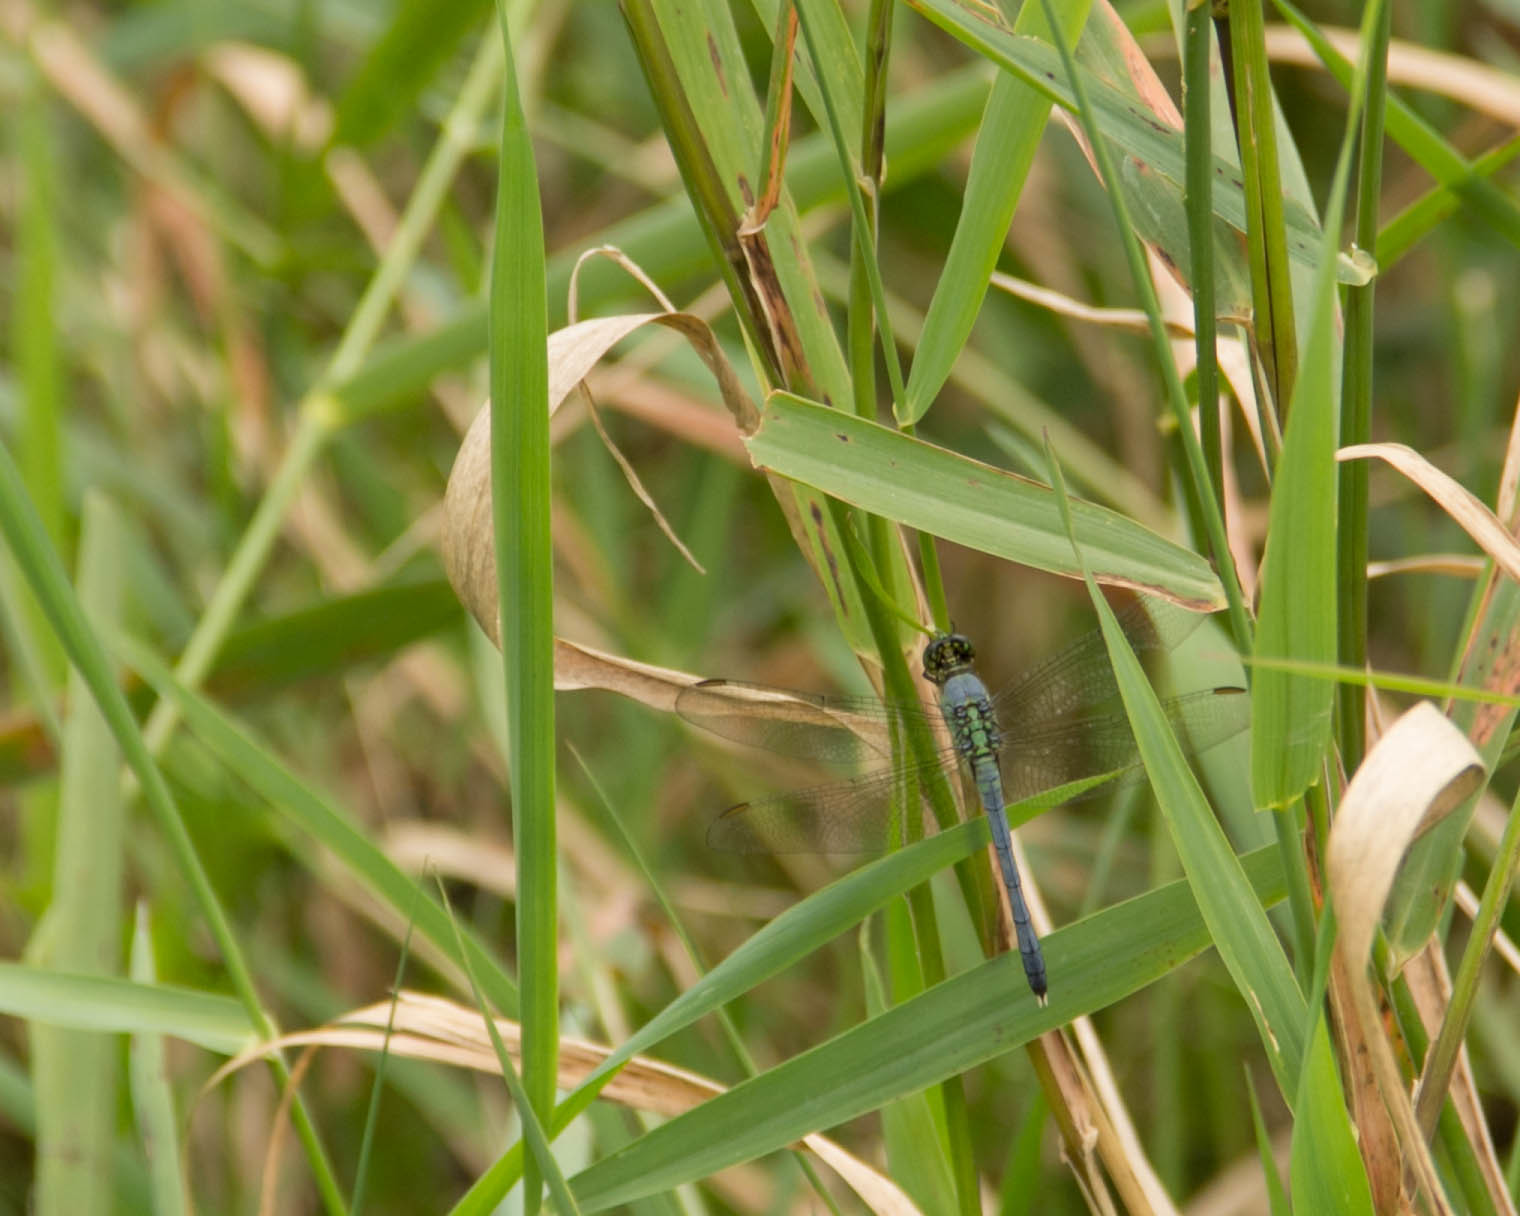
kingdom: Animalia
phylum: Arthropoda
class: Insecta
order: Odonata
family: Libellulidae
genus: Erythemis
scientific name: Erythemis simplicicollis
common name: Eastern pondhawk
